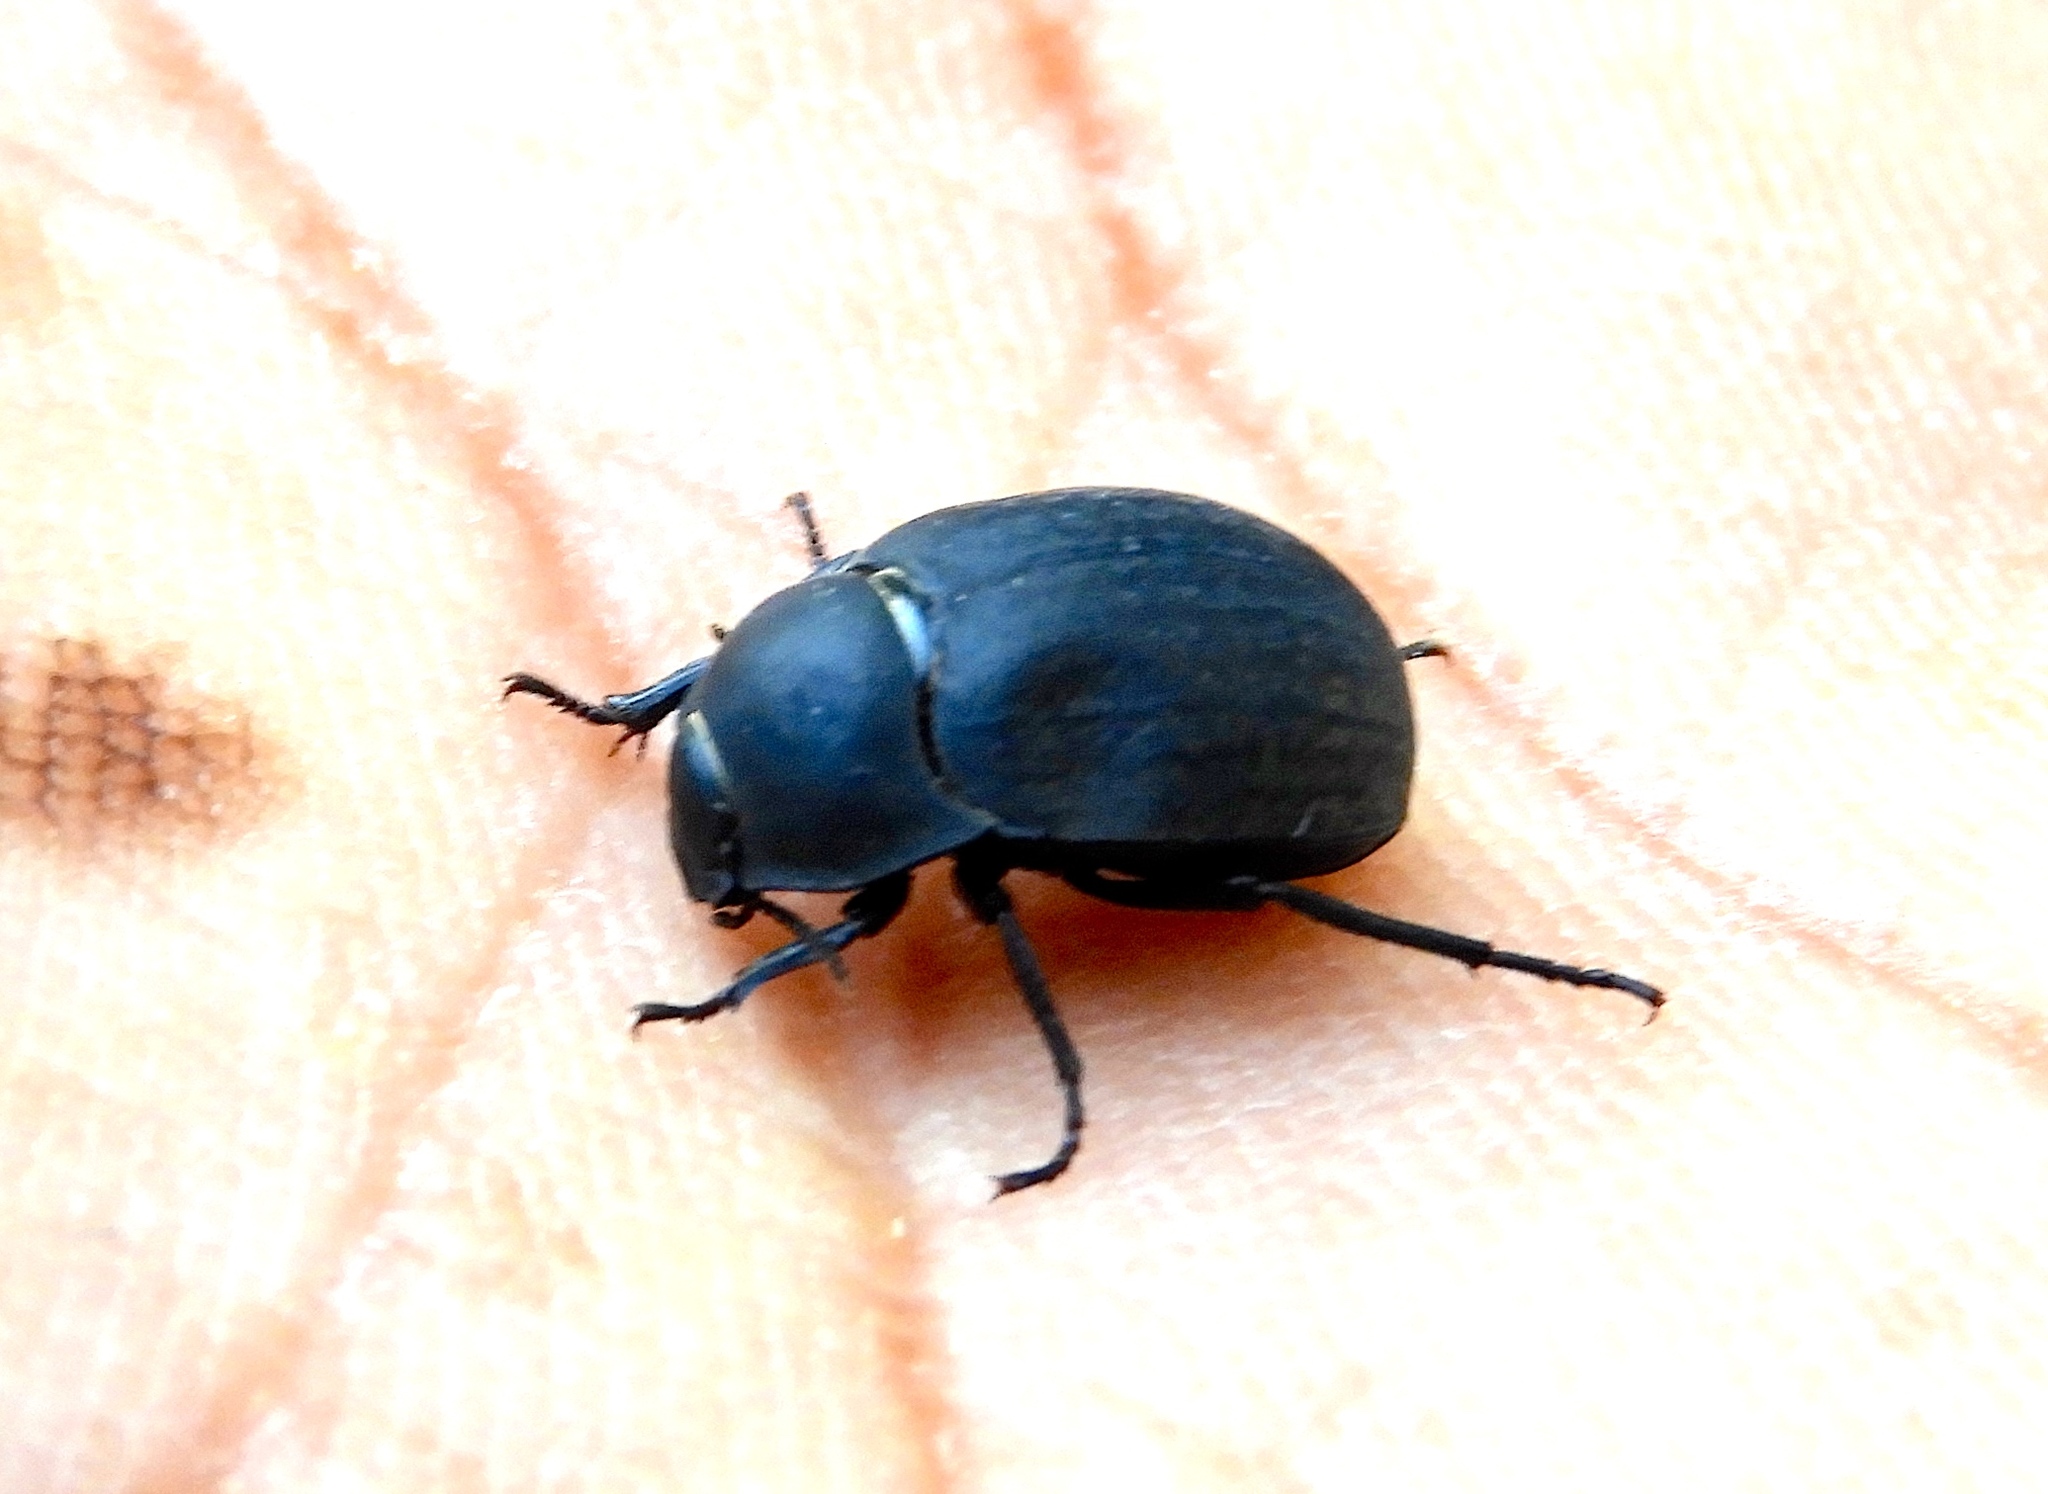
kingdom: Animalia
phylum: Arthropoda
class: Insecta
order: Coleoptera
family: Tenebrionidae
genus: Eusattus
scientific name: Eusattus
